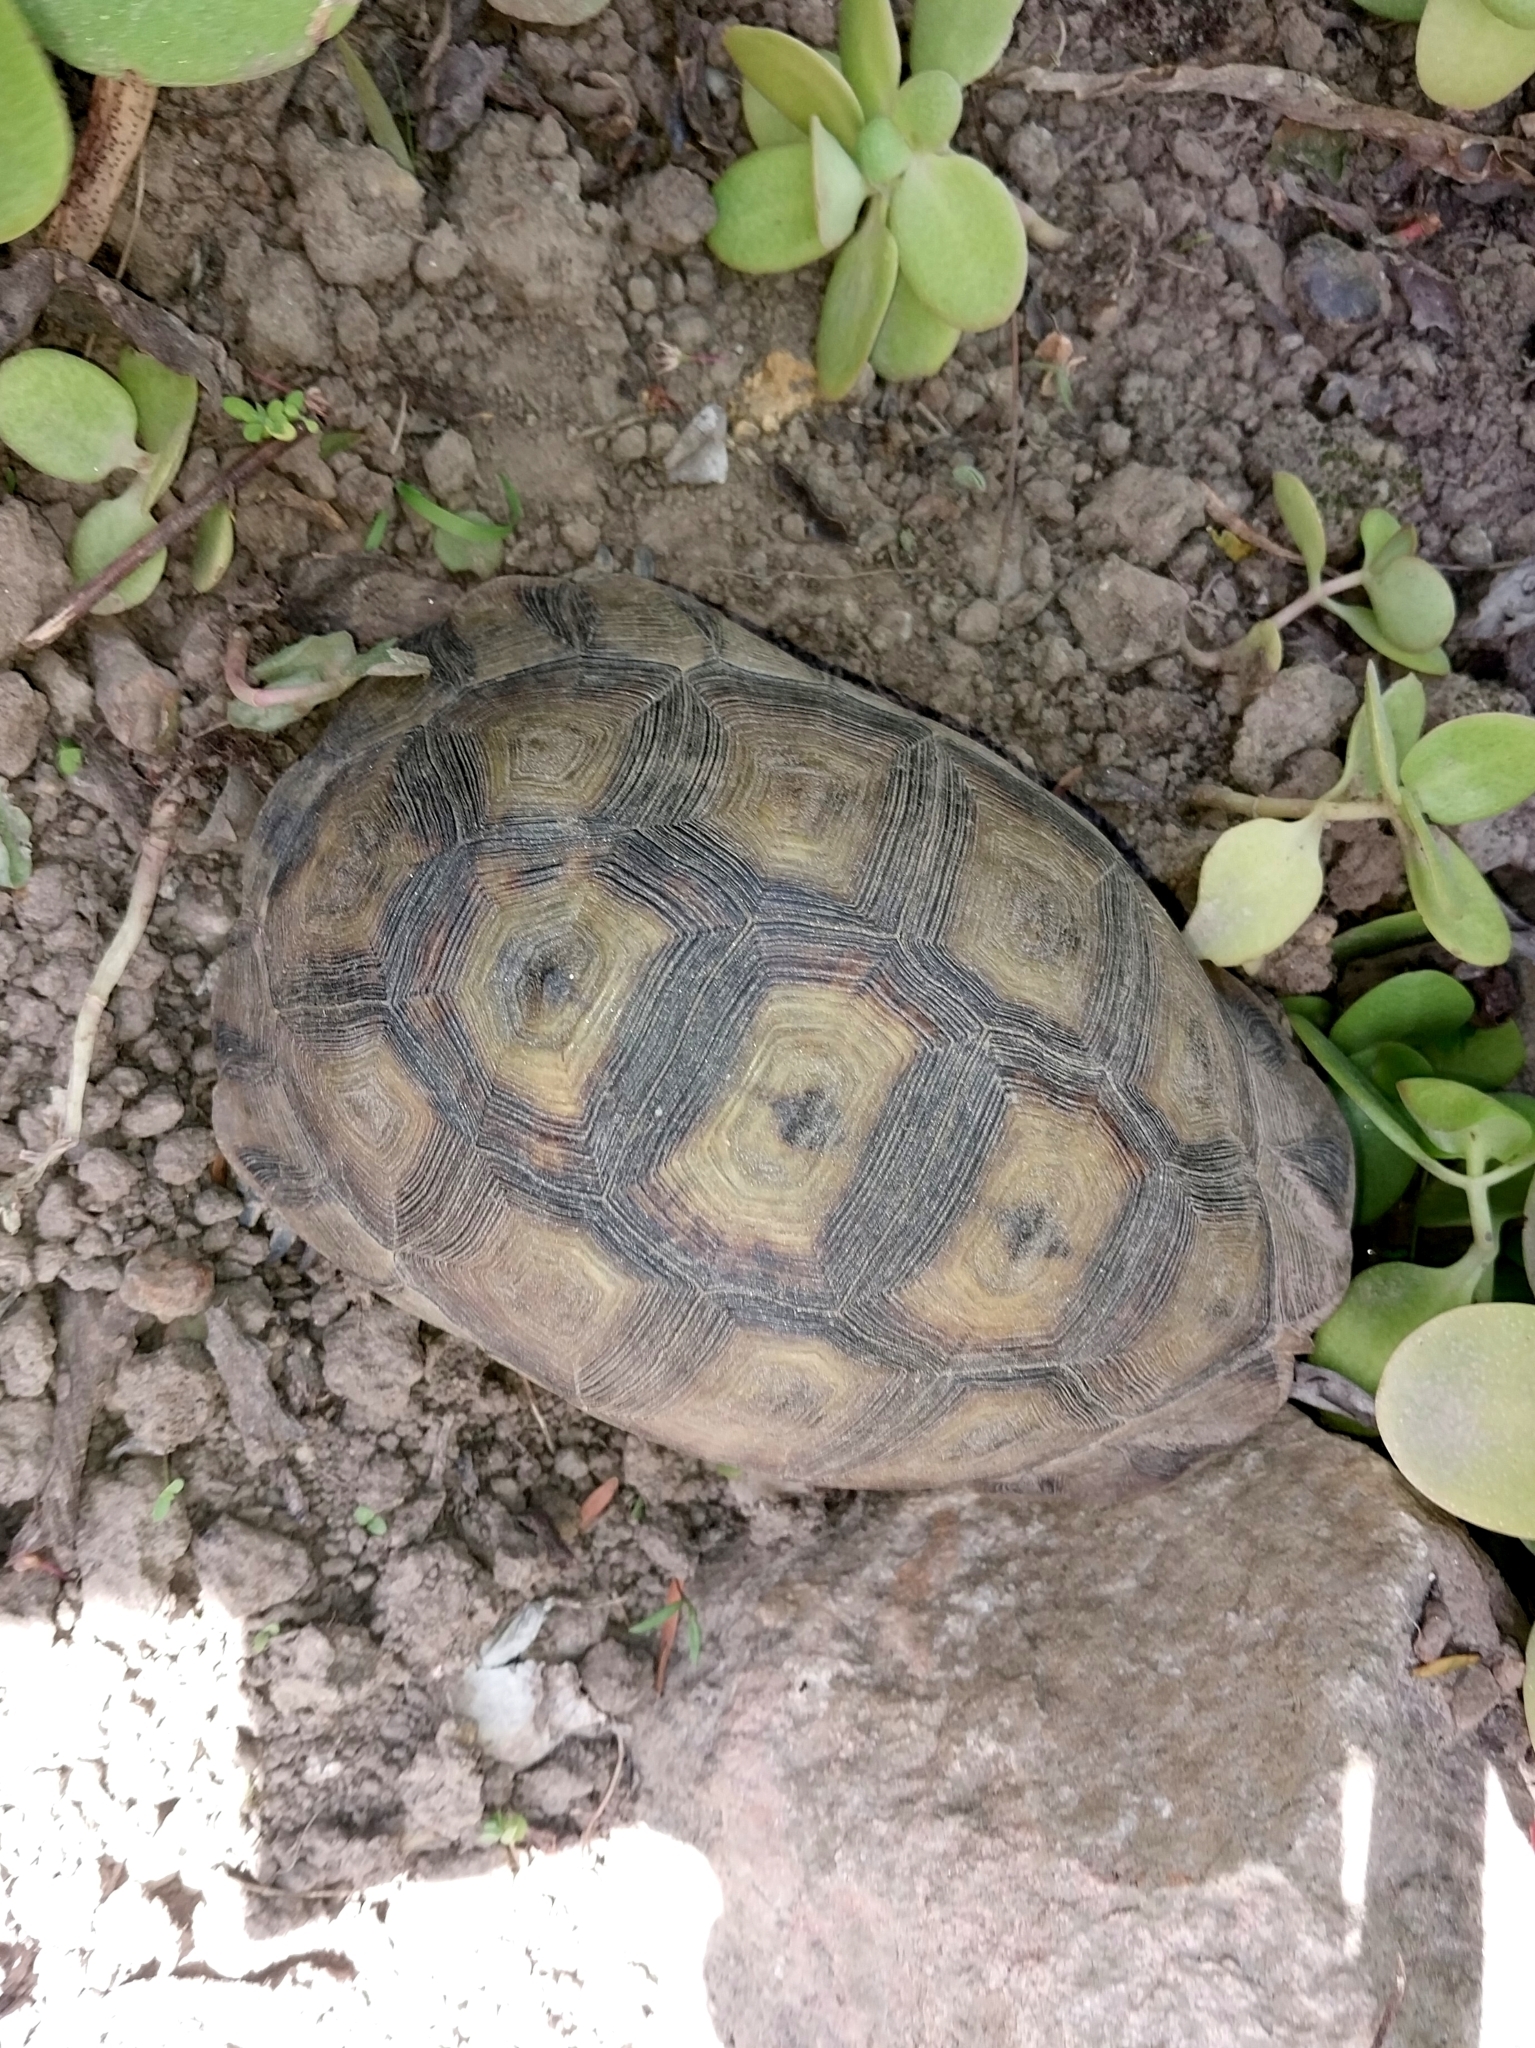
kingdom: Animalia
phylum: Chordata
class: Testudines
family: Testudinidae
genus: Chersina
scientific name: Chersina angulata
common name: South african bowsprit tortoise
